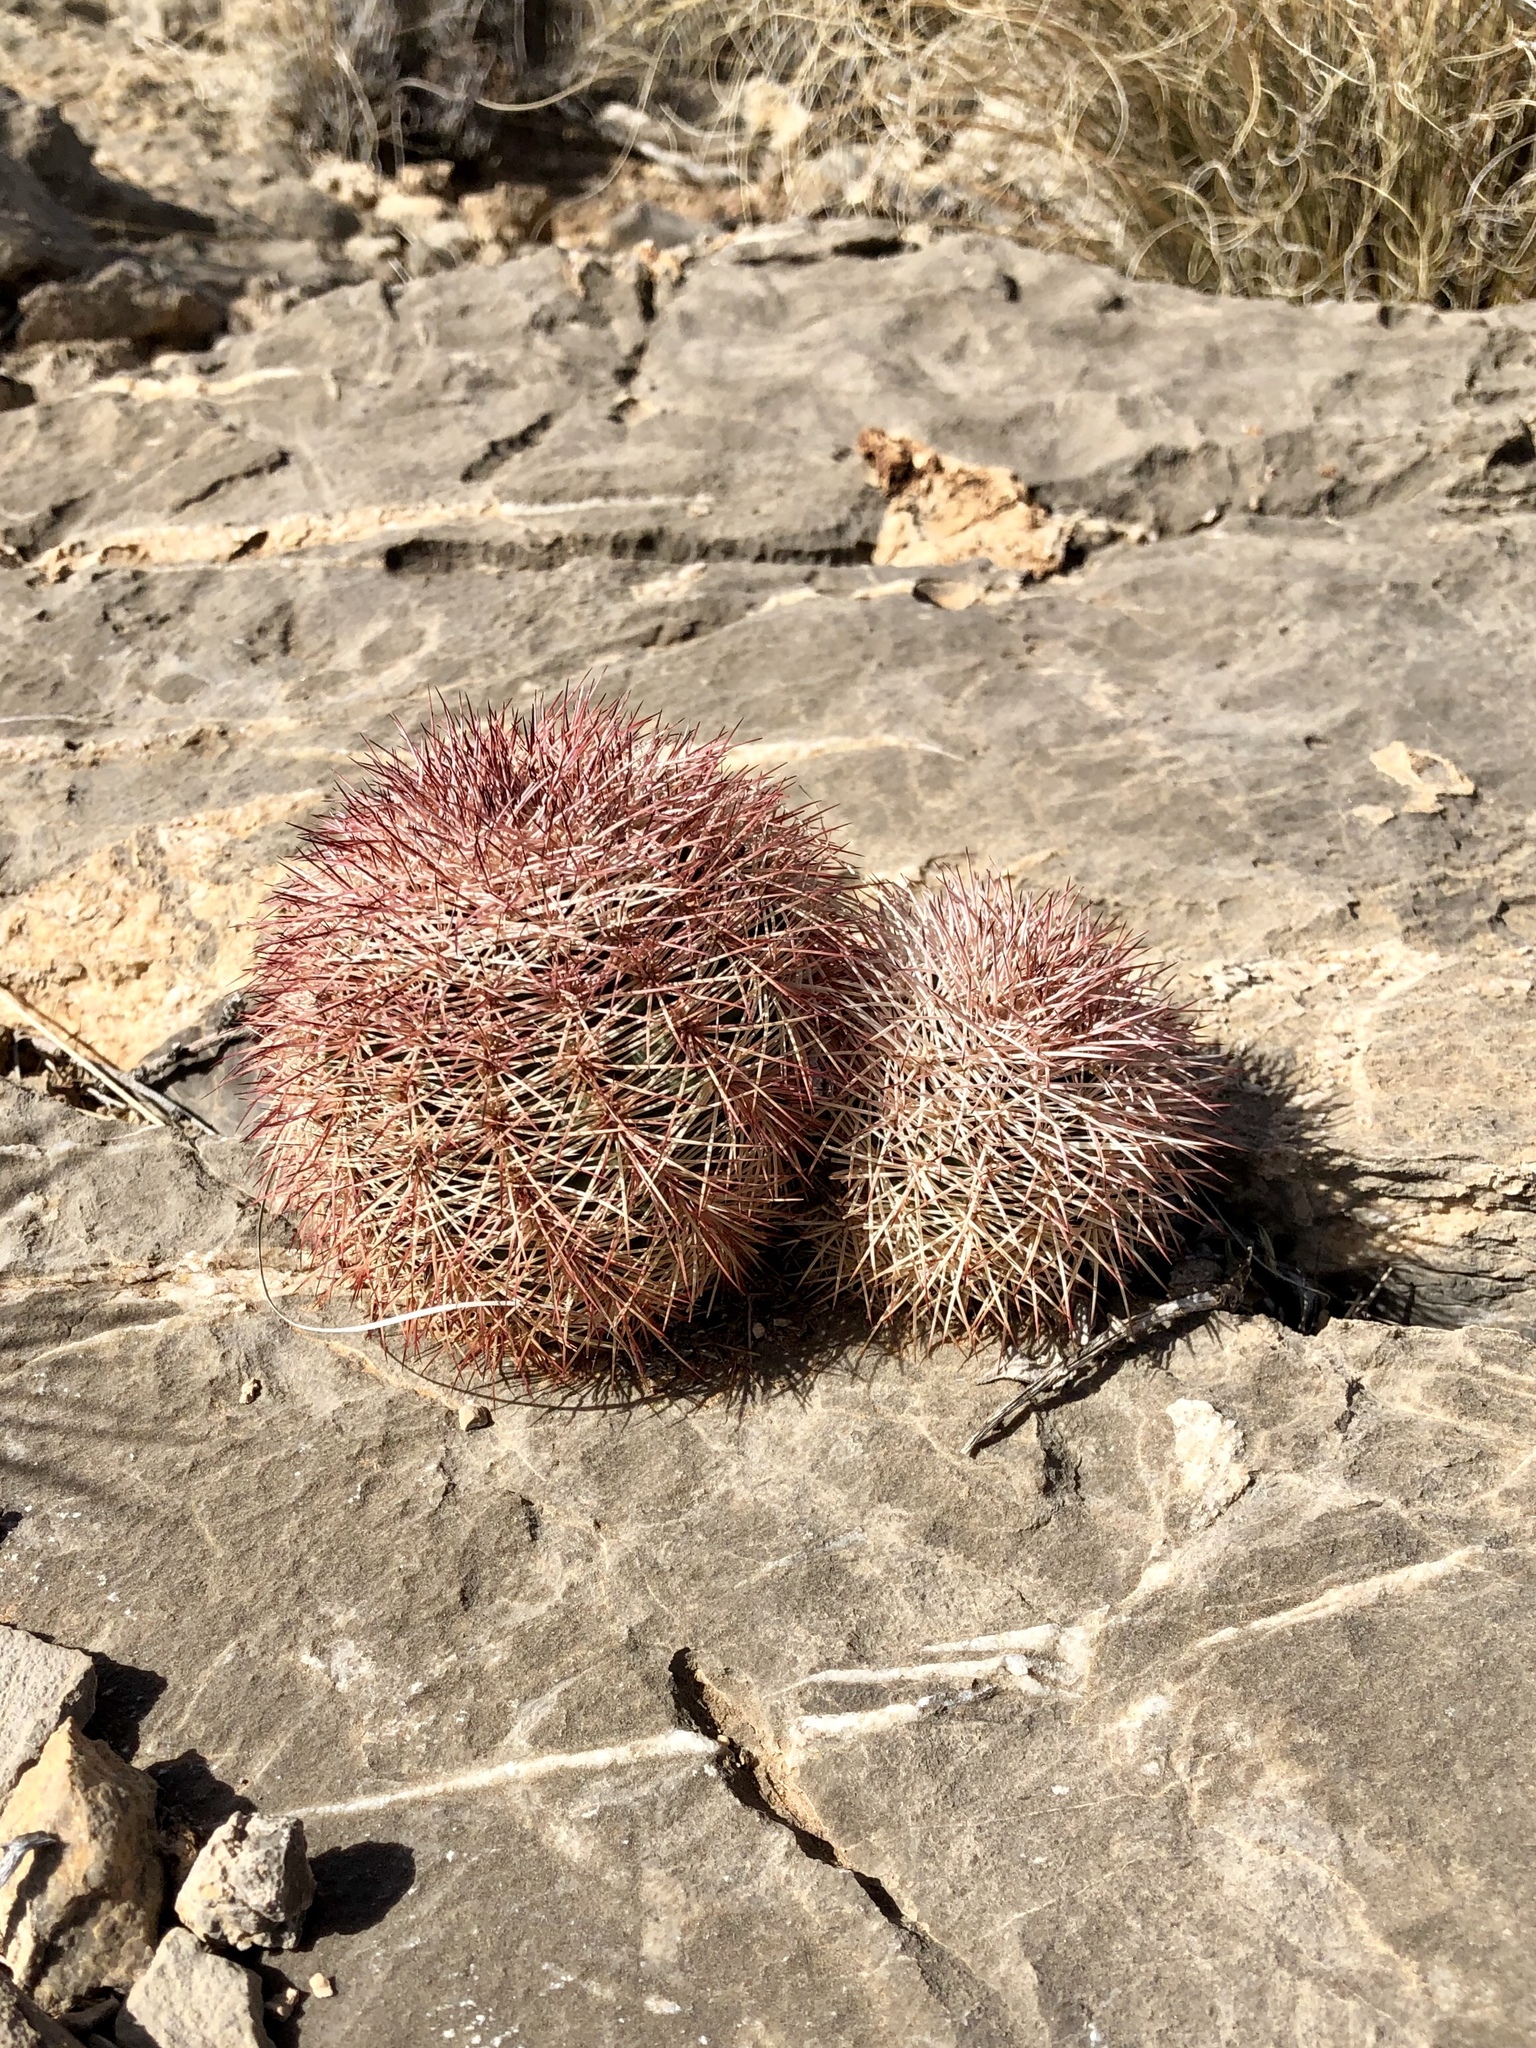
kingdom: Plantae
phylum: Tracheophyta
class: Magnoliopsida
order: Caryophyllales
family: Cactaceae
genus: Echinocereus
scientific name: Echinocereus dasyacanthus
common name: Spiny hedgehog cactus
